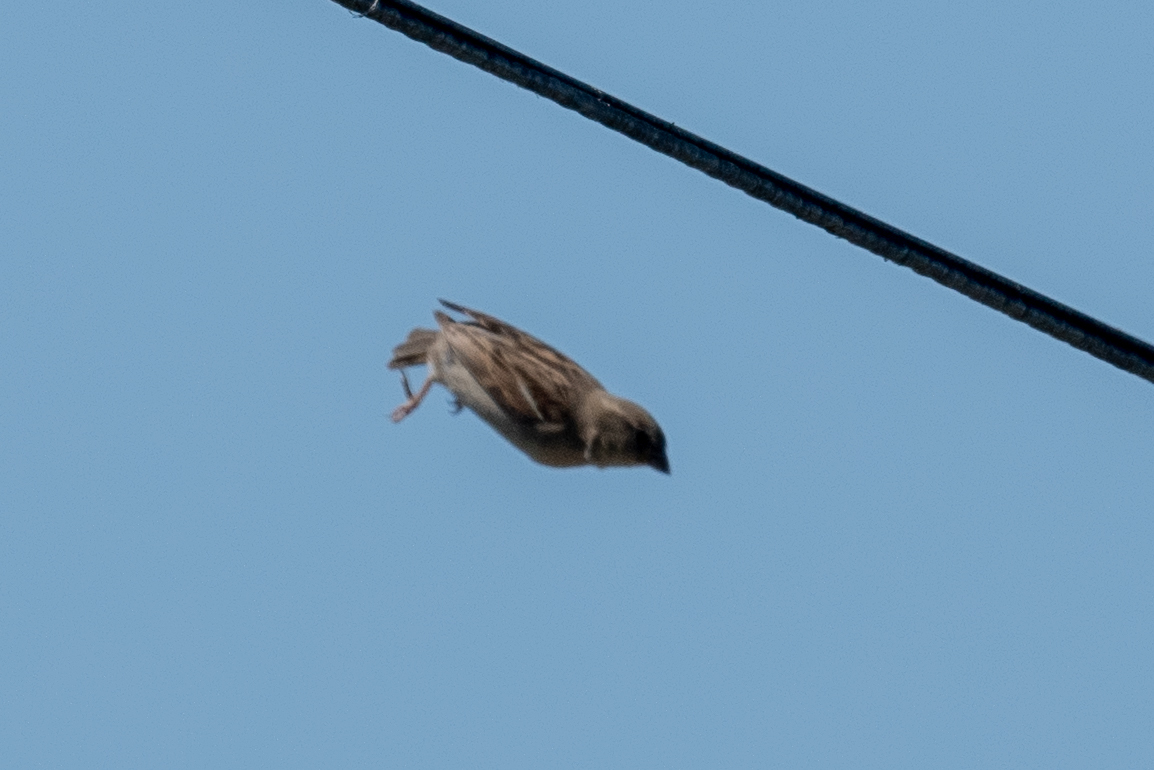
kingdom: Animalia
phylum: Chordata
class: Aves
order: Passeriformes
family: Passeridae
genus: Passer
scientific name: Passer domesticus
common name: House sparrow
